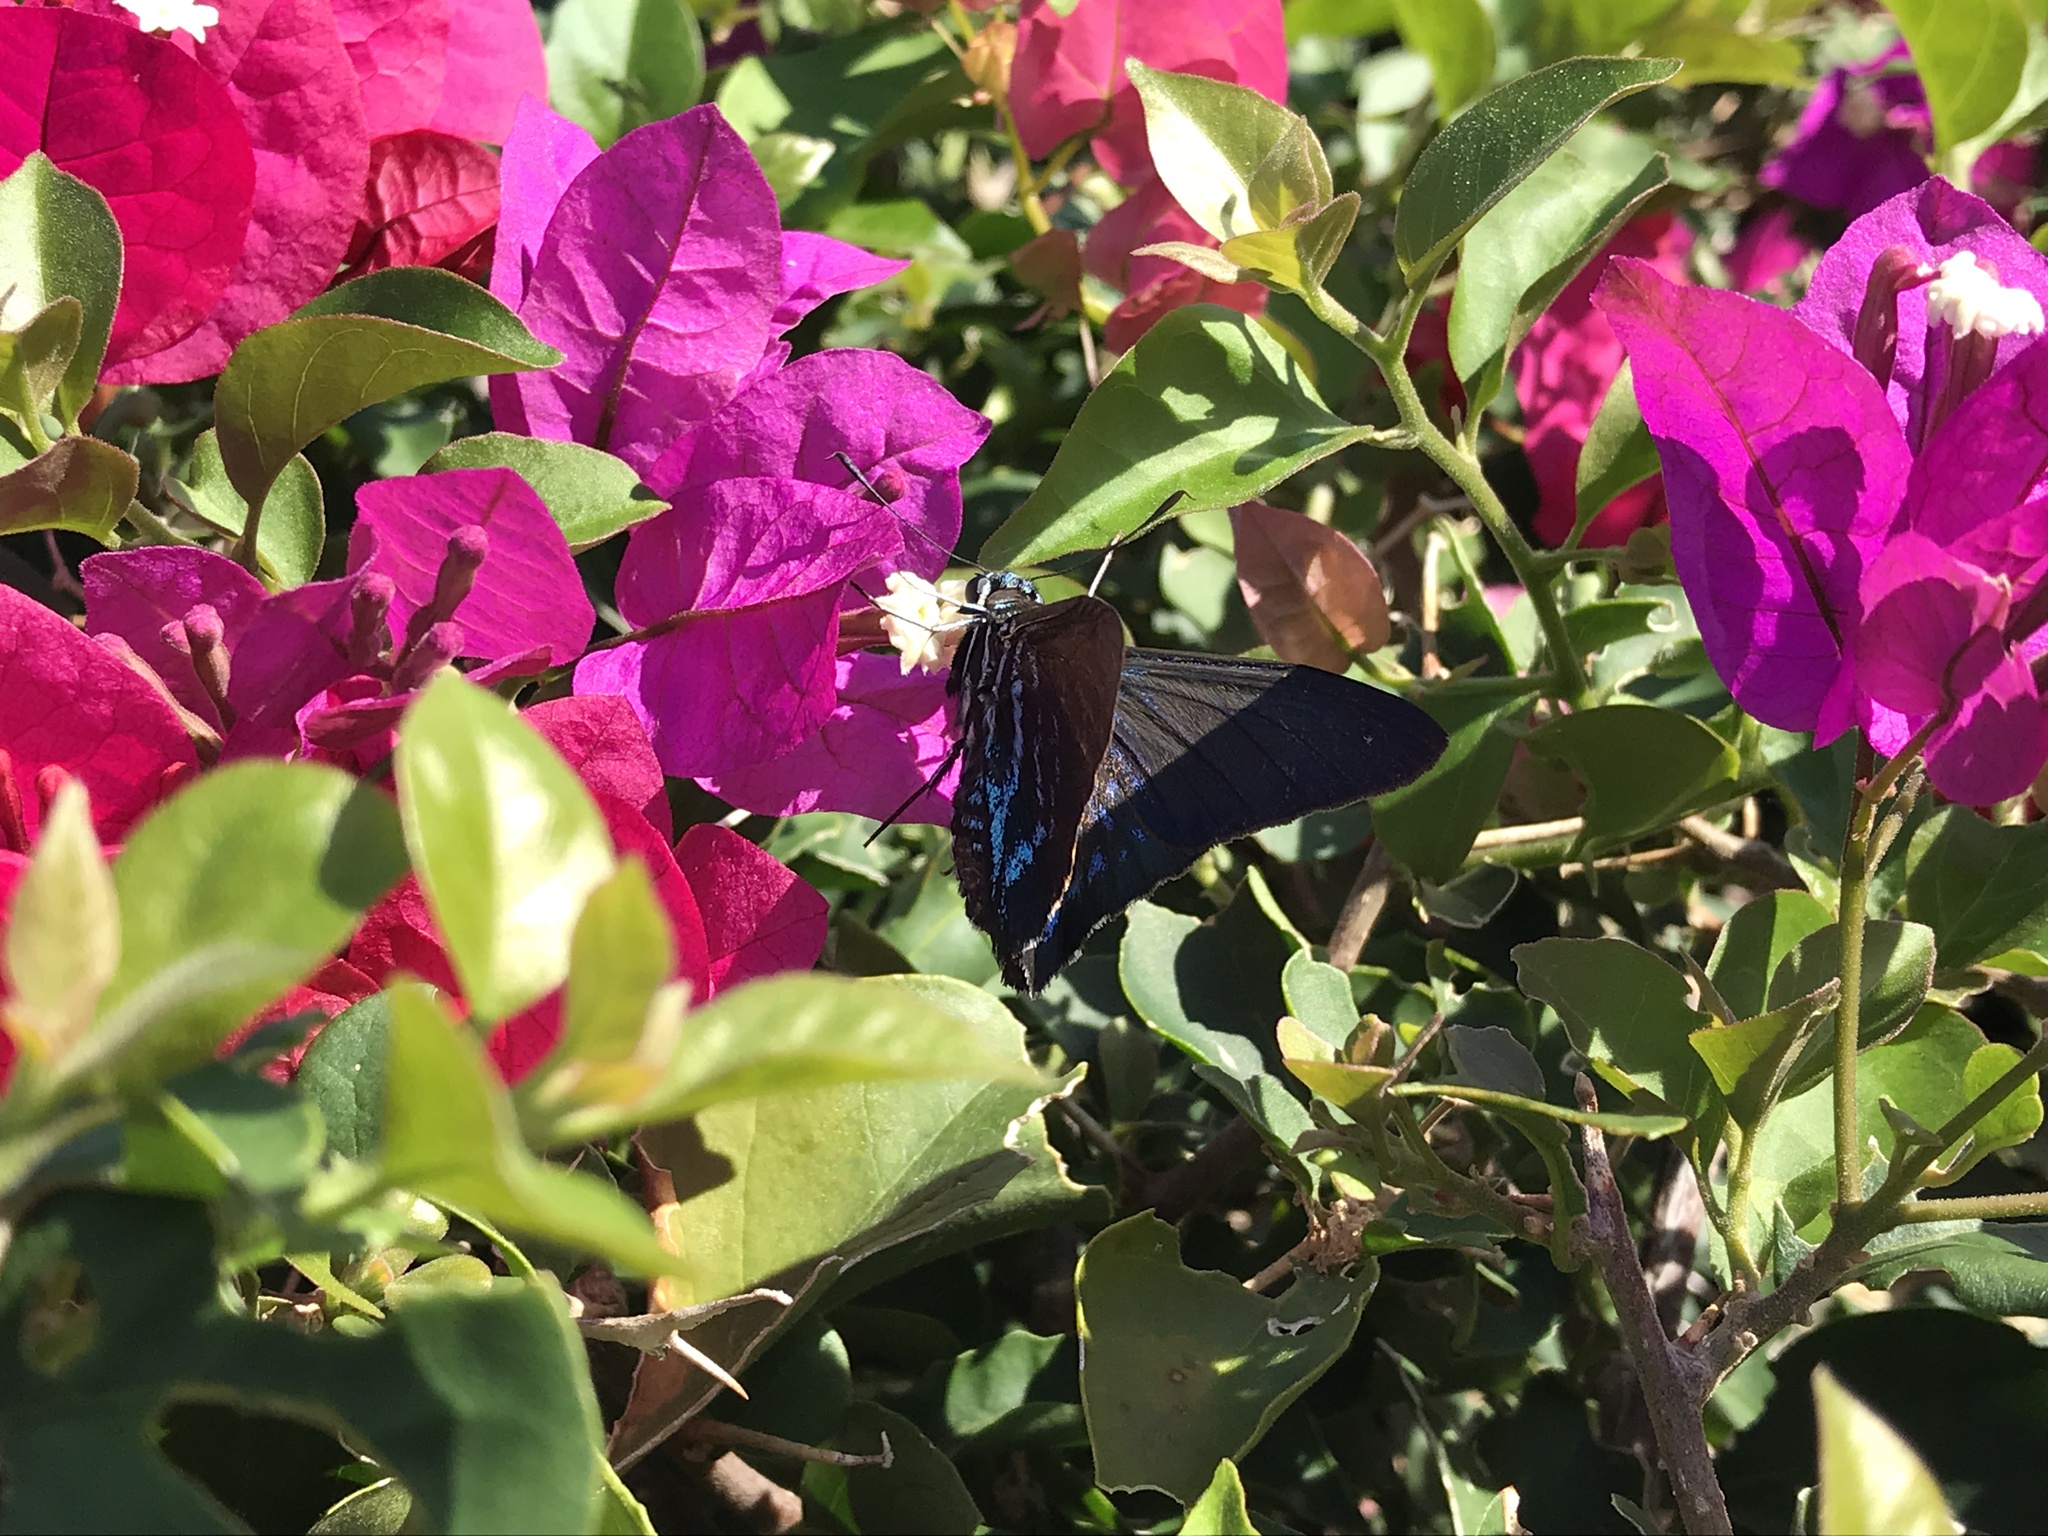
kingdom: Animalia
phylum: Arthropoda
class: Insecta
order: Lepidoptera
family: Hesperiidae
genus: Phocides
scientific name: Phocides pigmalion
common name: Mangrove skipper
